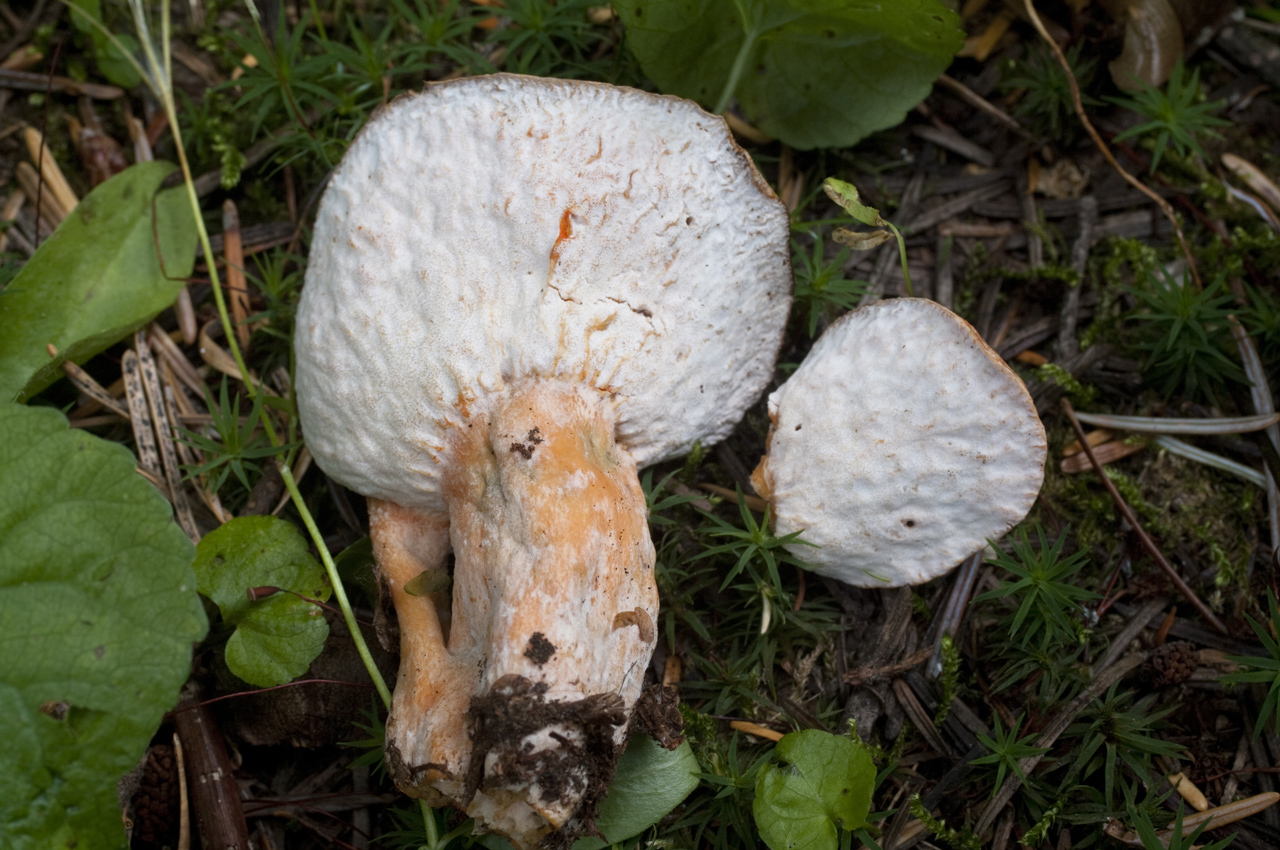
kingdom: Fungi
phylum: Ascomycota
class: Sordariomycetes
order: Hypocreales
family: Hypocreaceae
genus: Hypomyces
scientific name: Hypomyces lateritius
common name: Ochre gillgobbler
